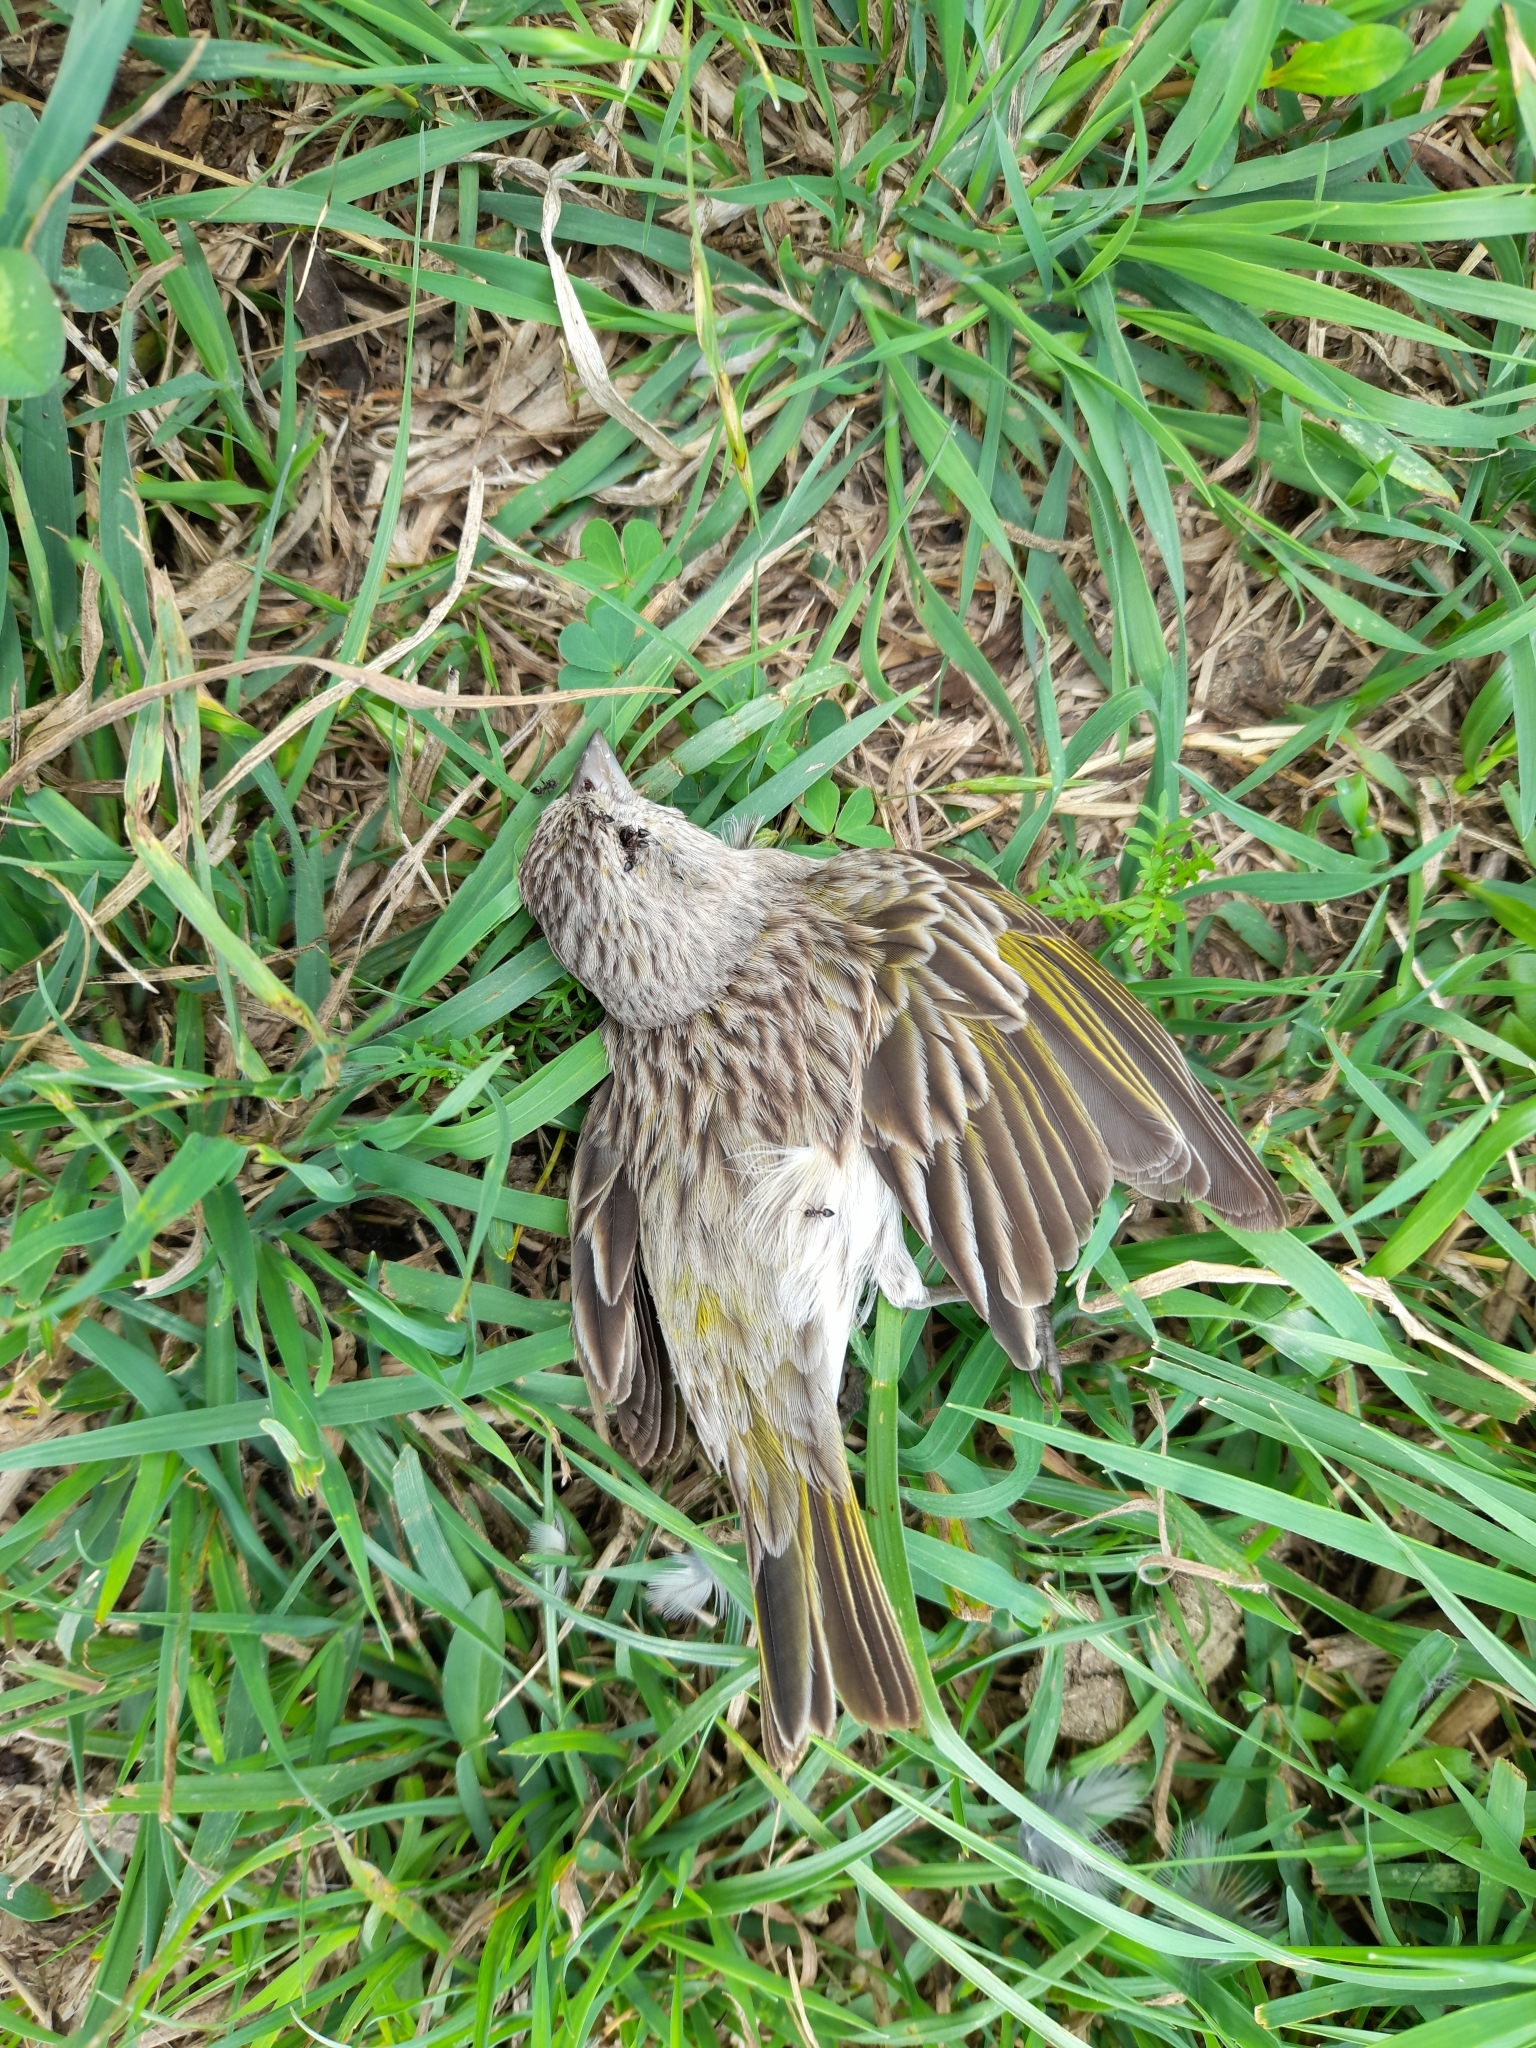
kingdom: Animalia
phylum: Chordata
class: Aves
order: Passeriformes
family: Thraupidae
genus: Sicalis
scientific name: Sicalis flaveola
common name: Saffron finch
